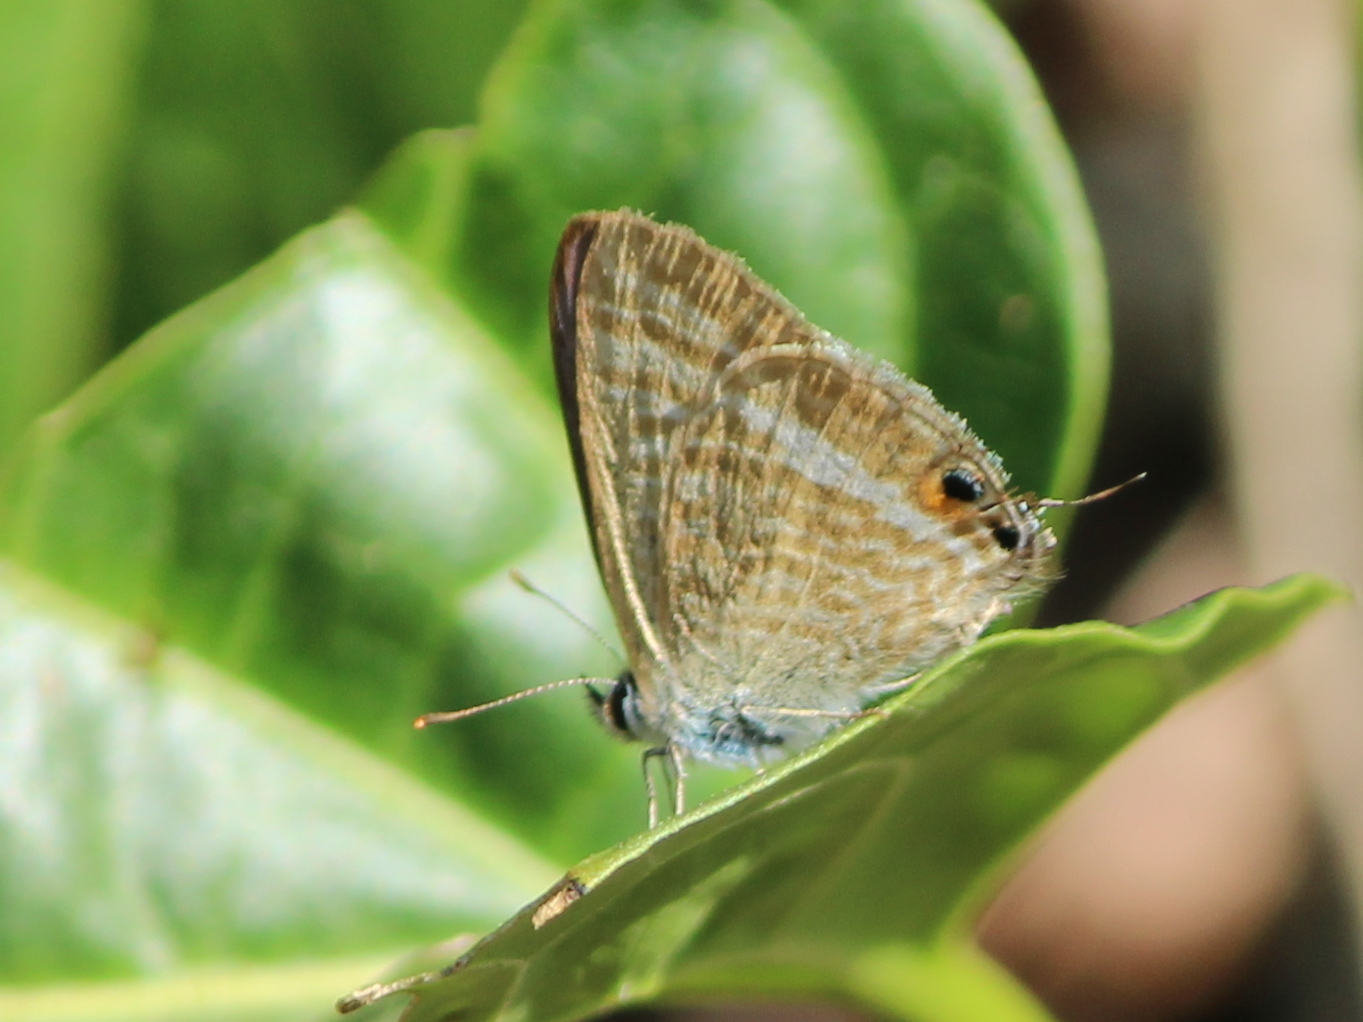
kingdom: Animalia
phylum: Arthropoda
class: Insecta
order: Lepidoptera
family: Lycaenidae
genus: Lampides
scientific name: Lampides boeticus
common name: Long-tailed blue
